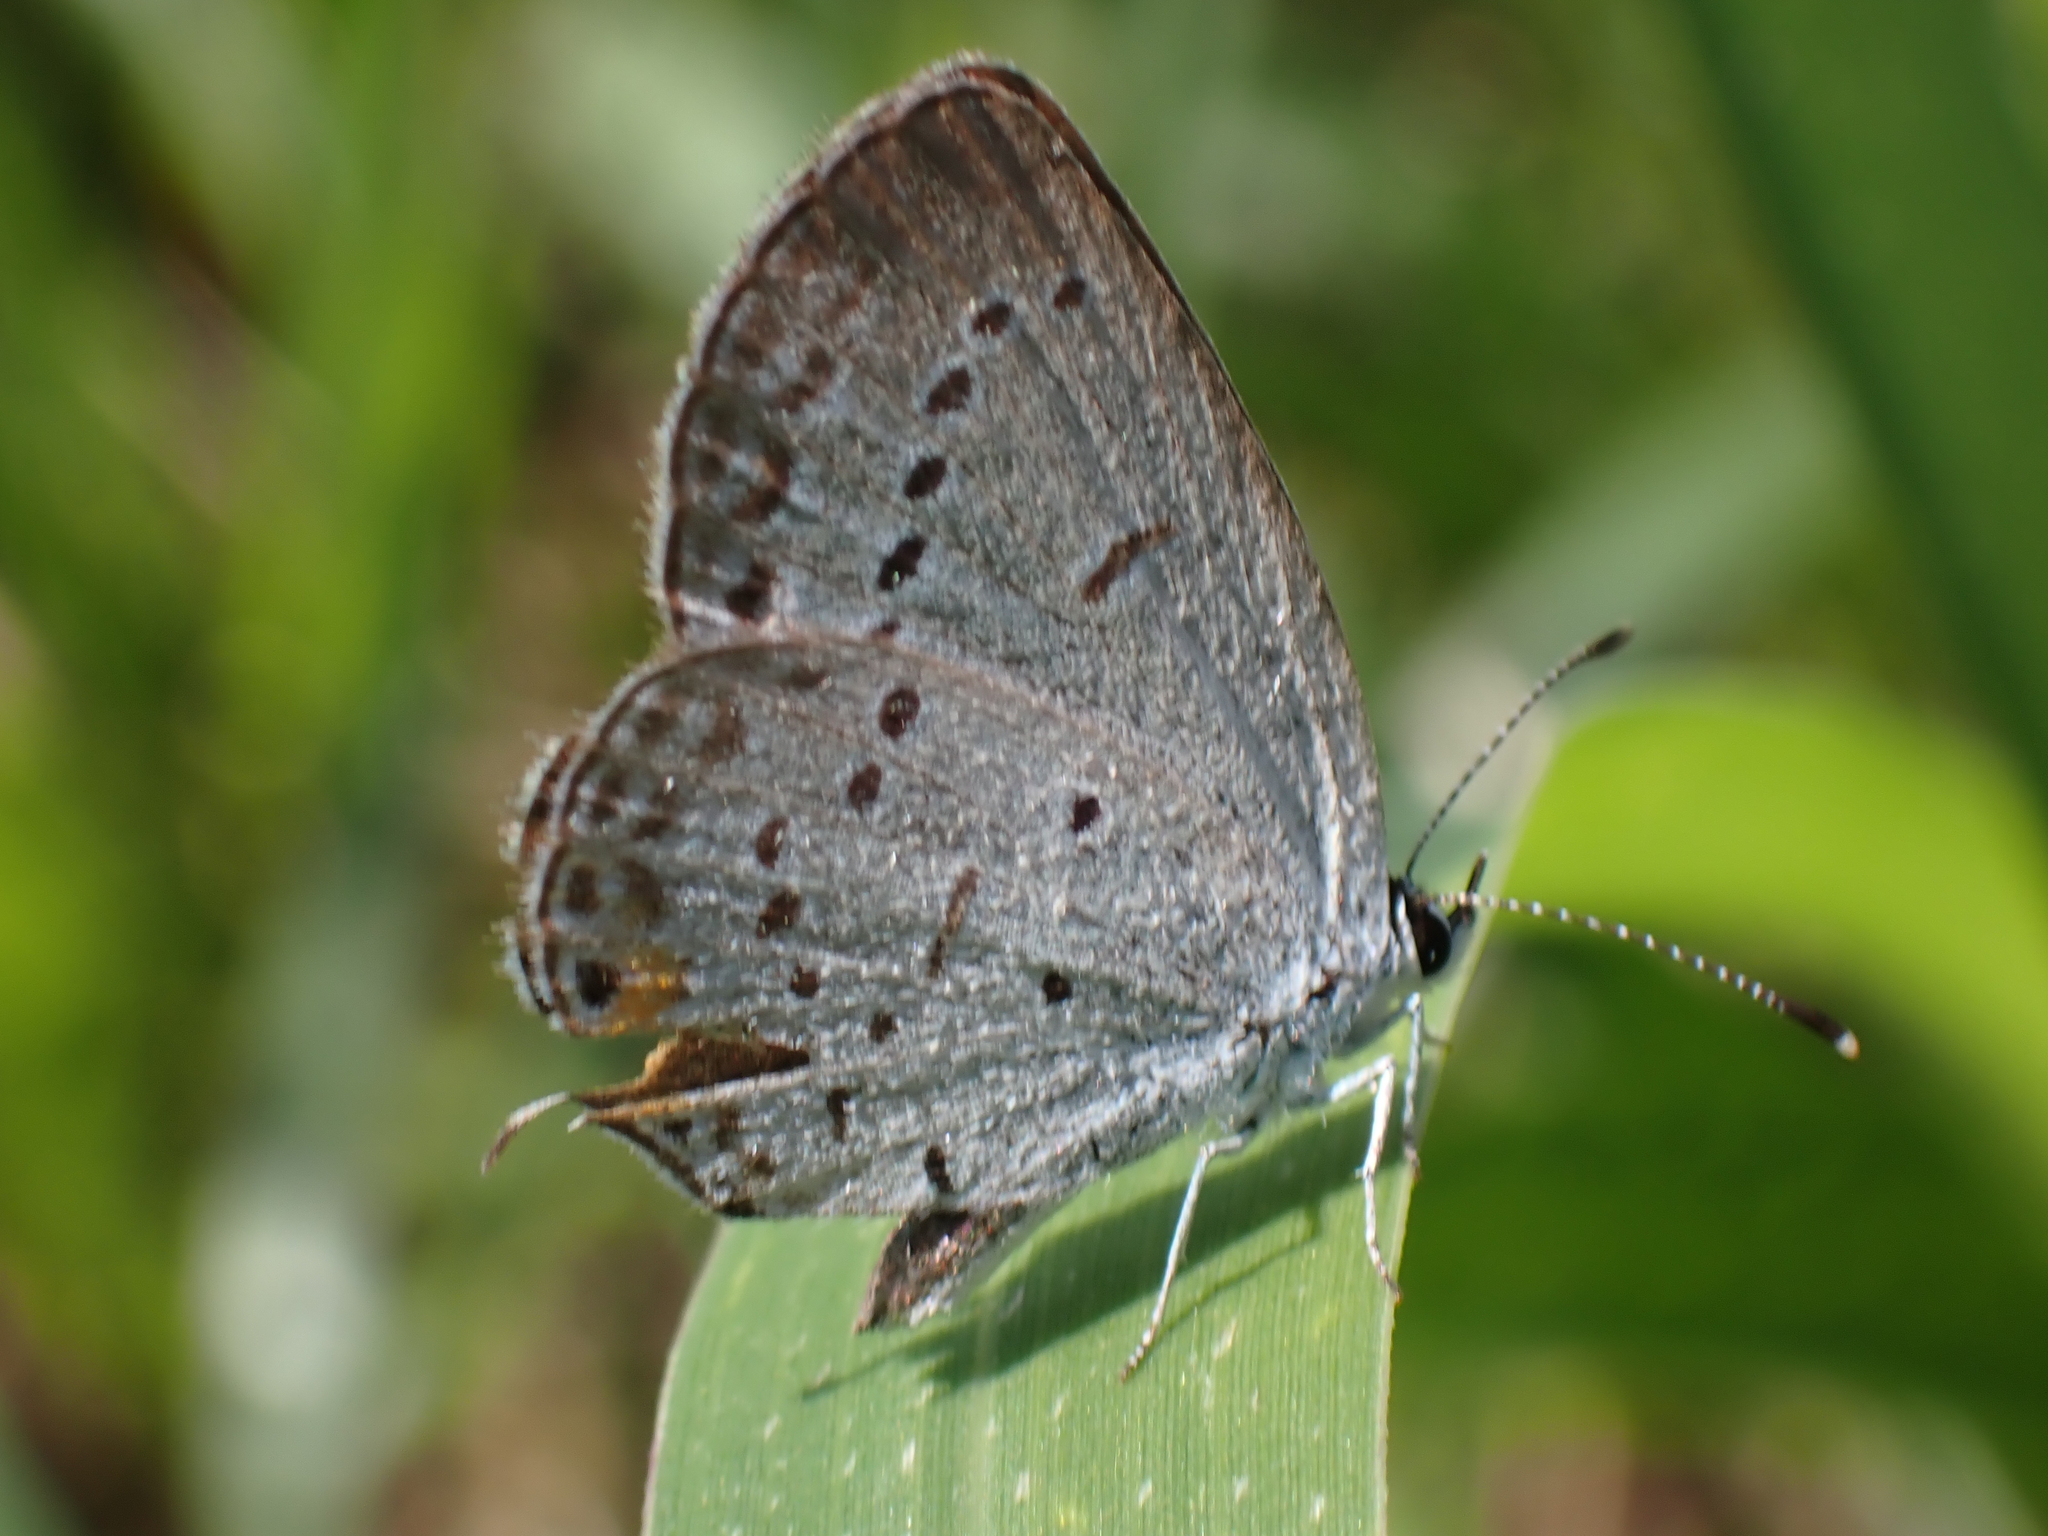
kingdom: Animalia
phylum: Arthropoda
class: Insecta
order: Lepidoptera
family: Lycaenidae
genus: Elkalyce
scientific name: Elkalyce comyntas
